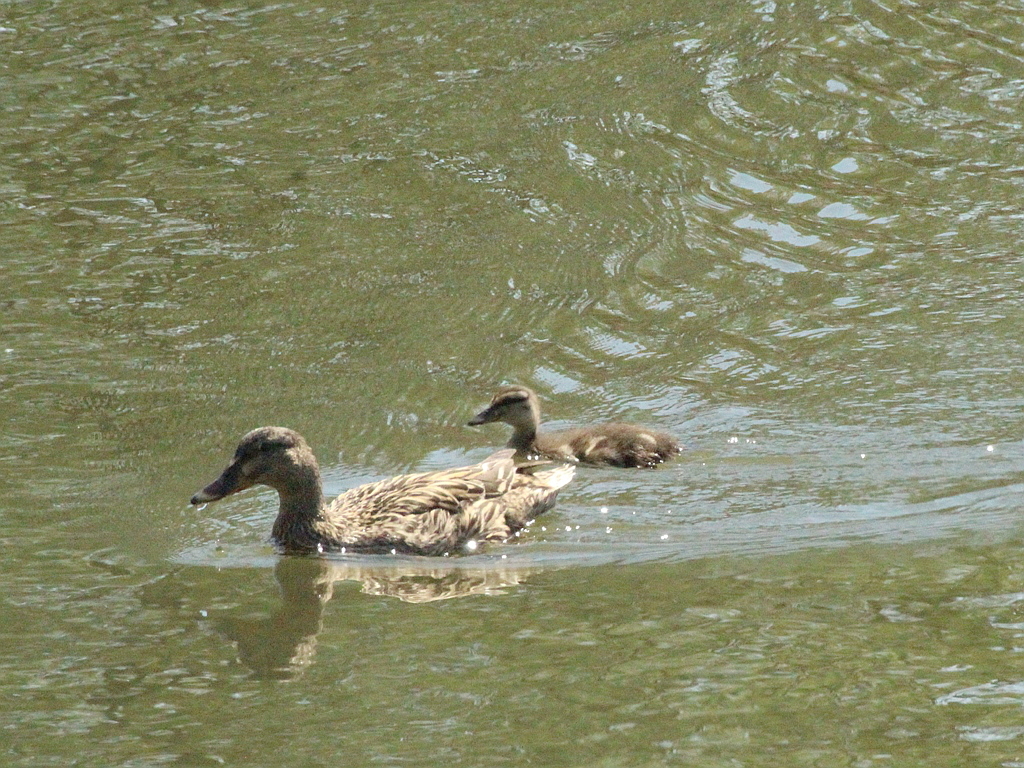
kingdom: Animalia
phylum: Chordata
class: Aves
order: Anseriformes
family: Anatidae
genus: Anas
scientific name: Anas platyrhynchos
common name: Mallard
